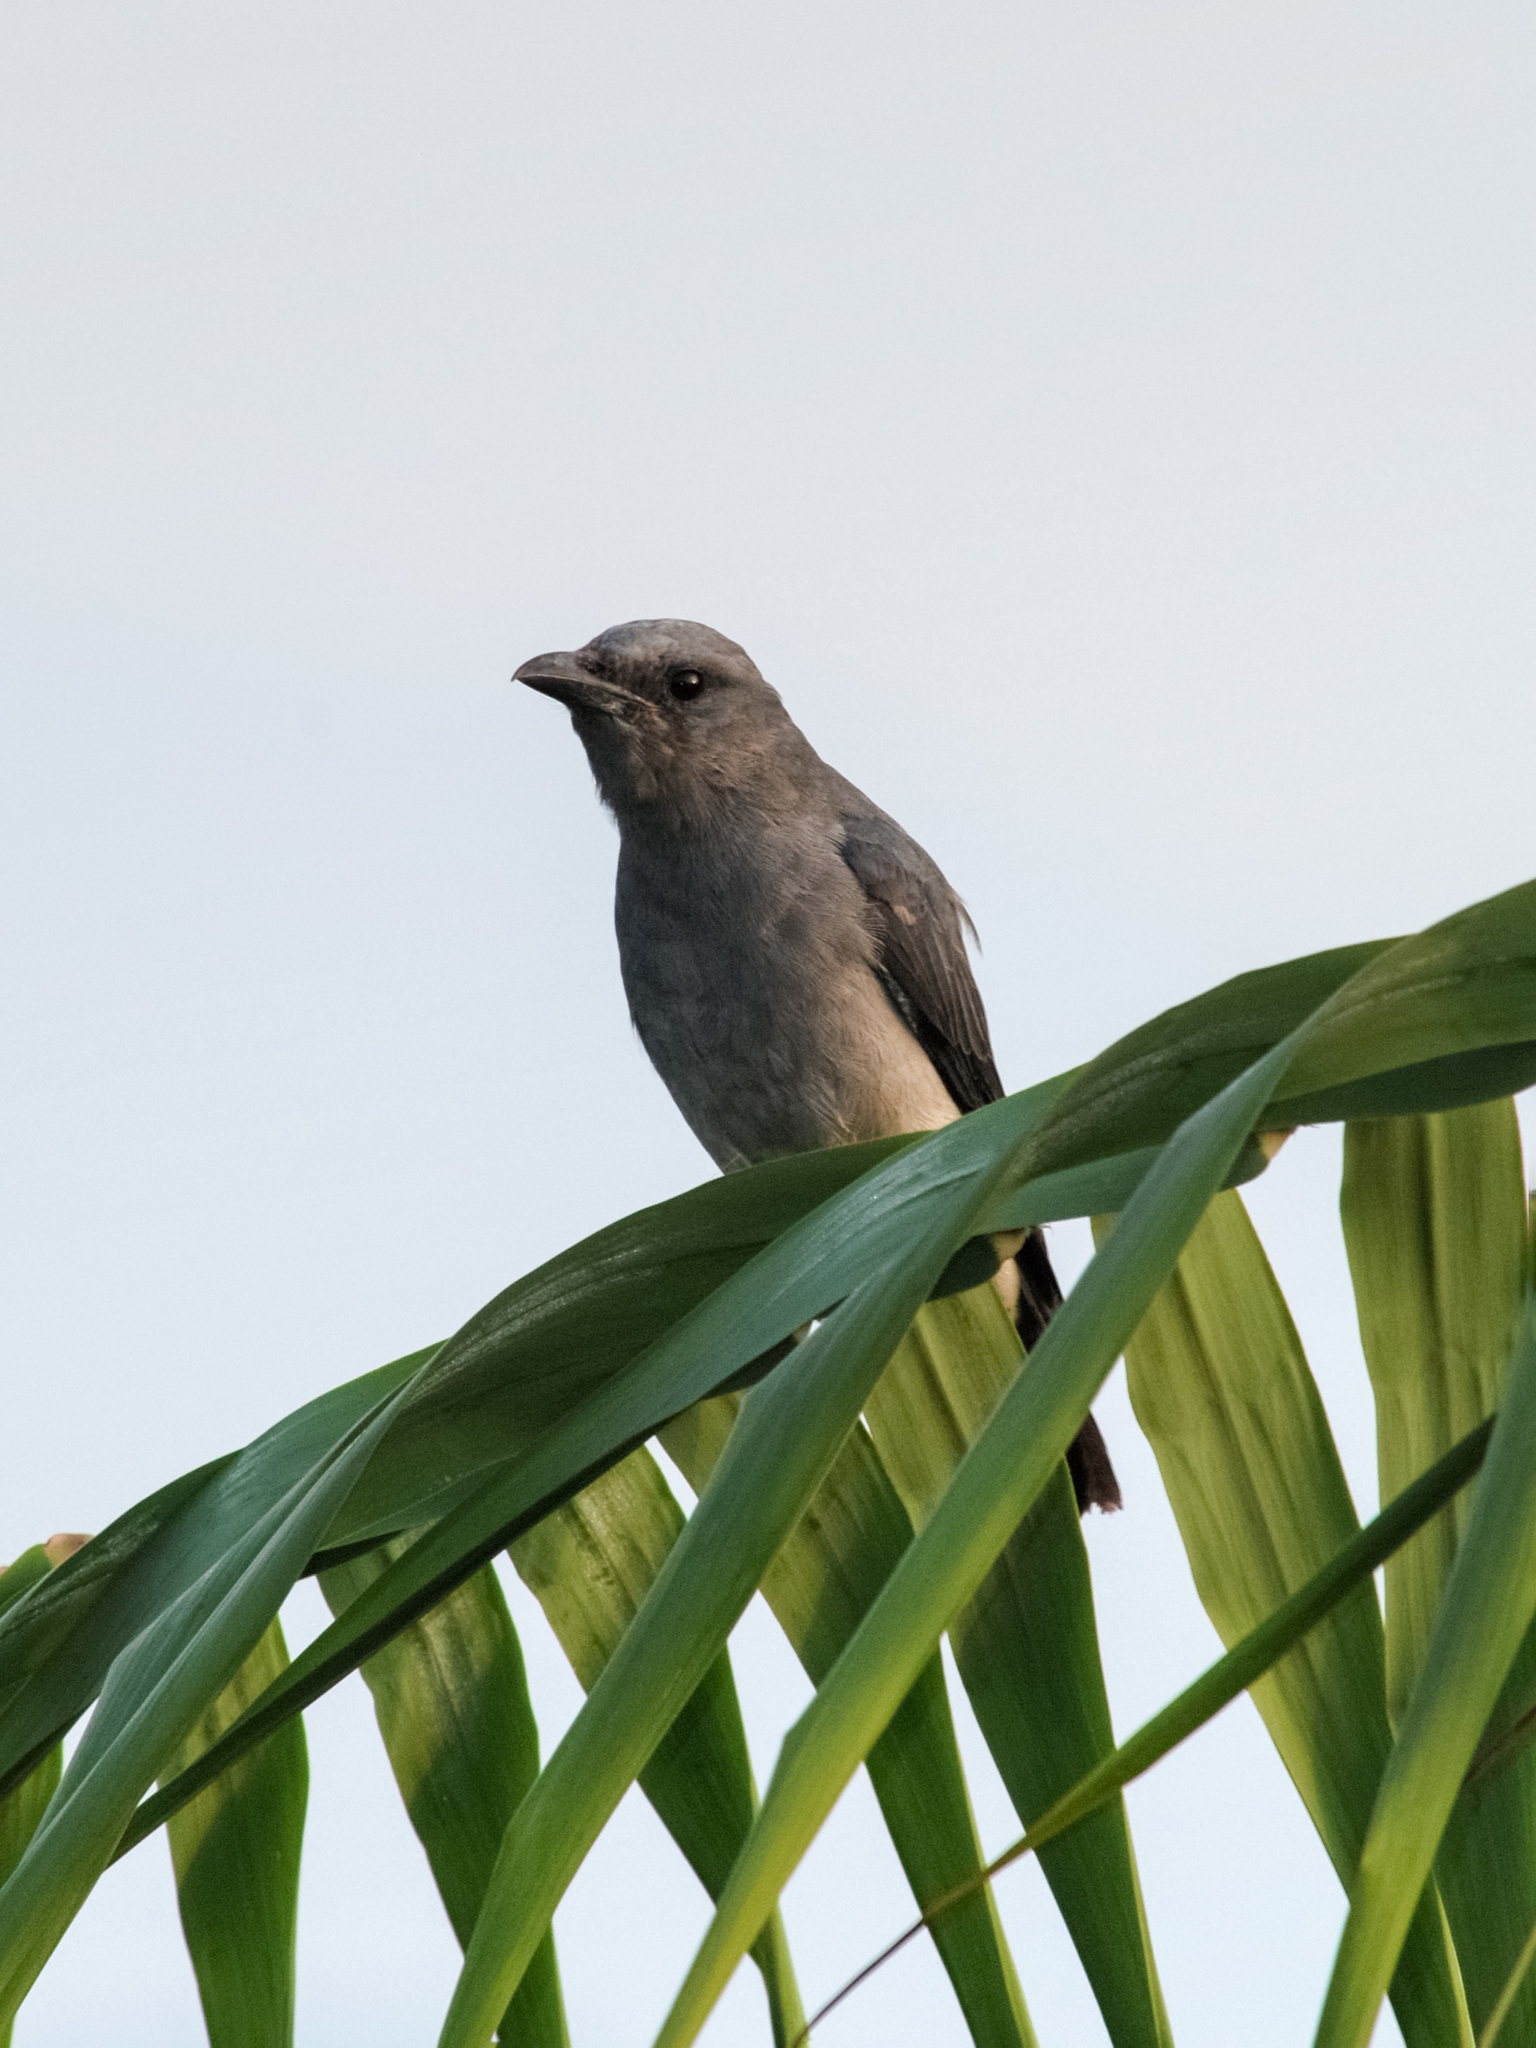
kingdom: Animalia
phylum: Chordata
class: Aves
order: Passeriformes
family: Campephagidae
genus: Coracina
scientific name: Coracina macei
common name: Large cuckooshrike
